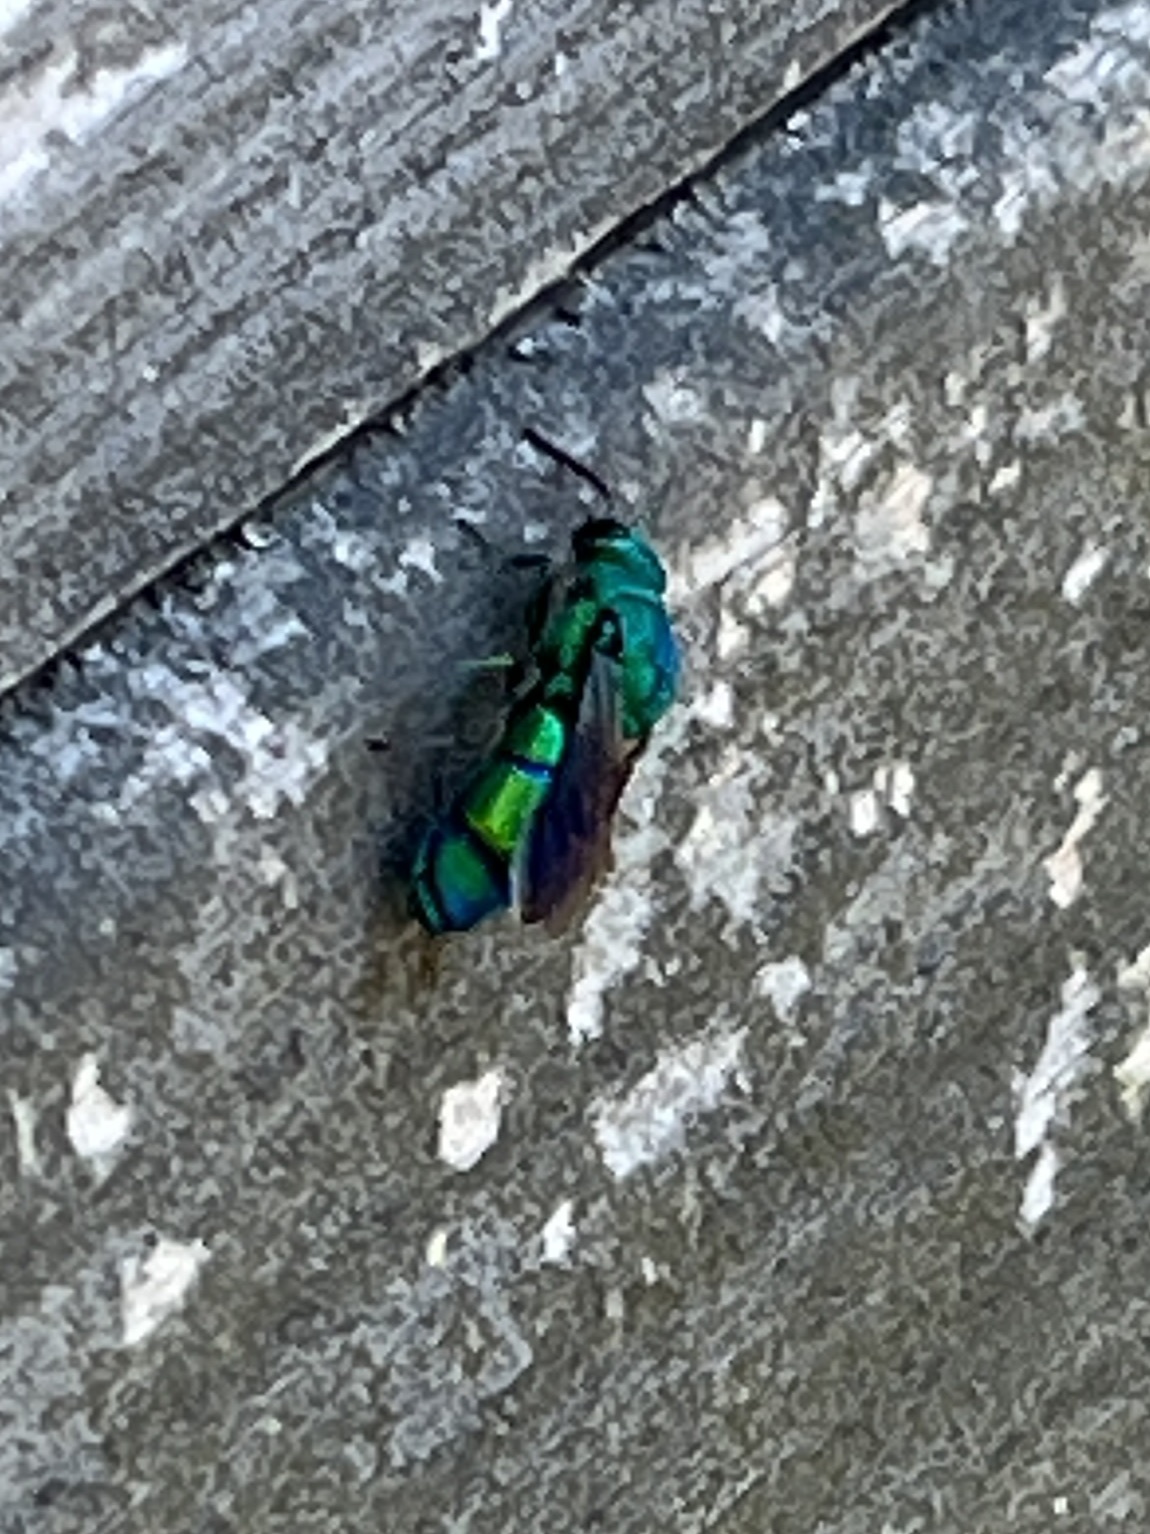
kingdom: Animalia
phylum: Arthropoda
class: Insecta
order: Hymenoptera
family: Chrysididae
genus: Chrysis
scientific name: Chrysis smaragdula
